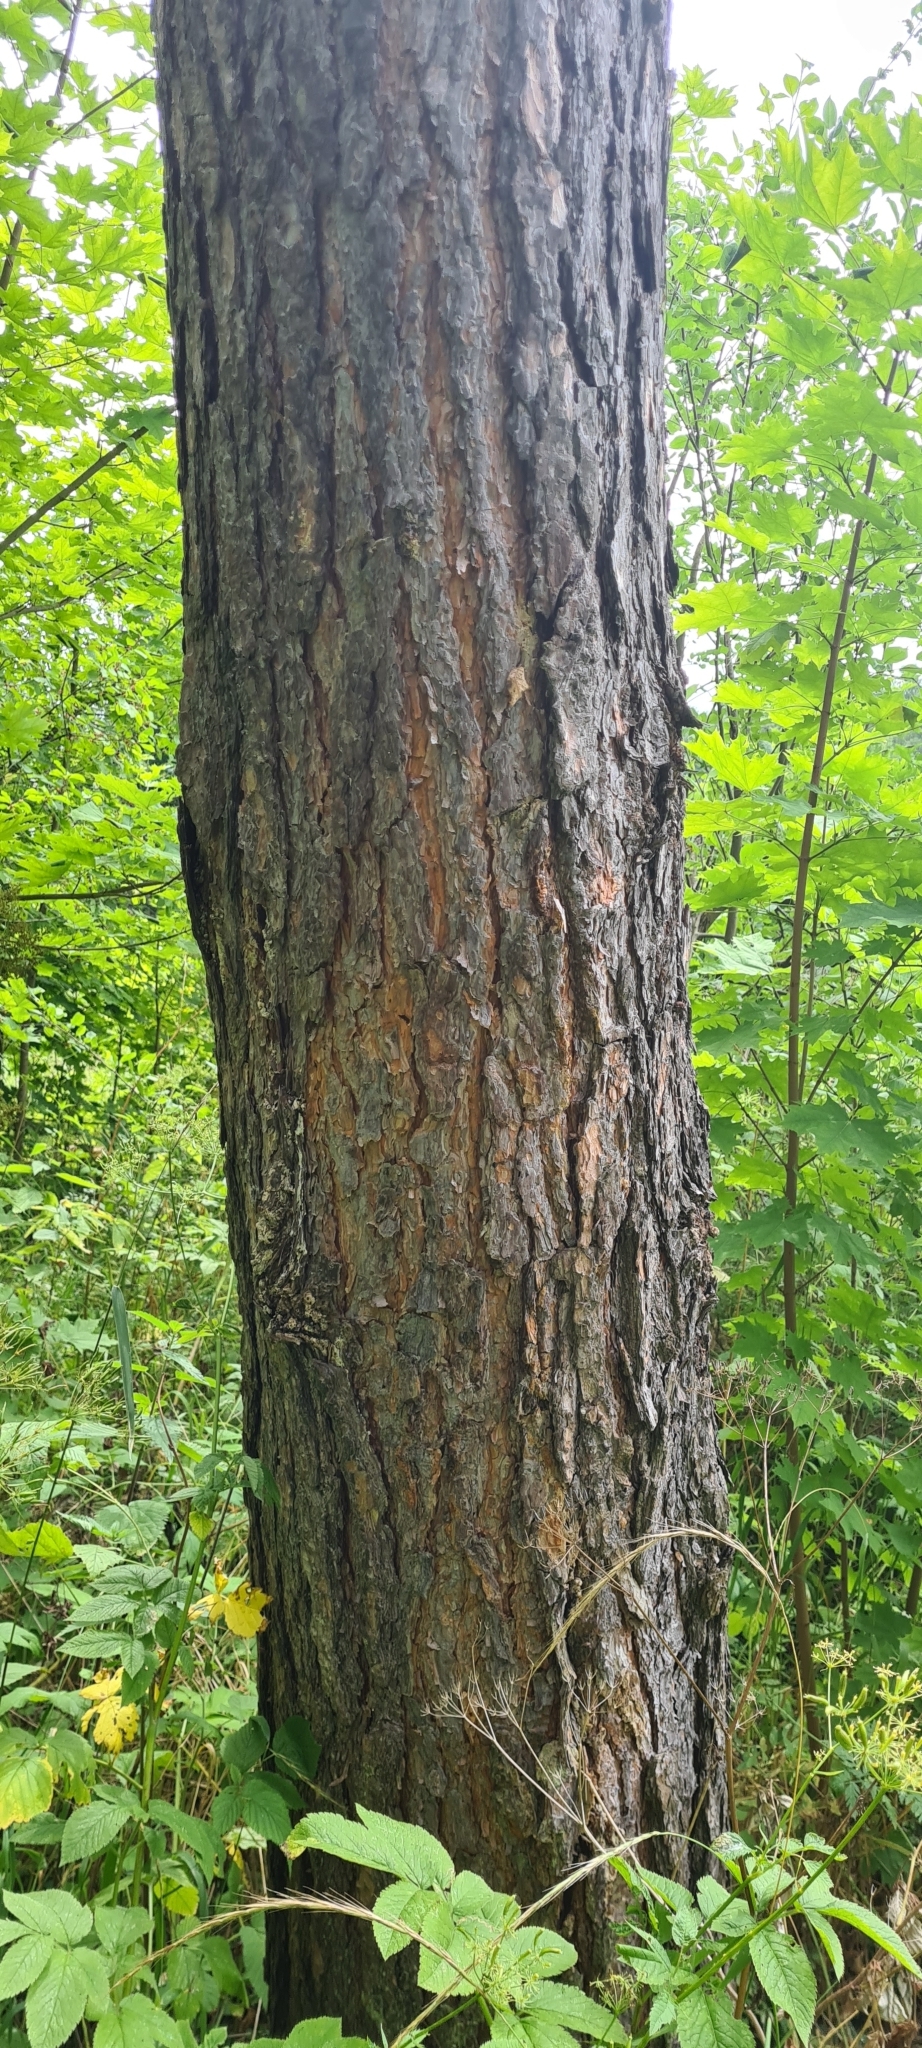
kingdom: Plantae
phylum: Tracheophyta
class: Pinopsida
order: Pinales
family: Pinaceae
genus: Pinus
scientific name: Pinus sylvestris
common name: Scots pine
